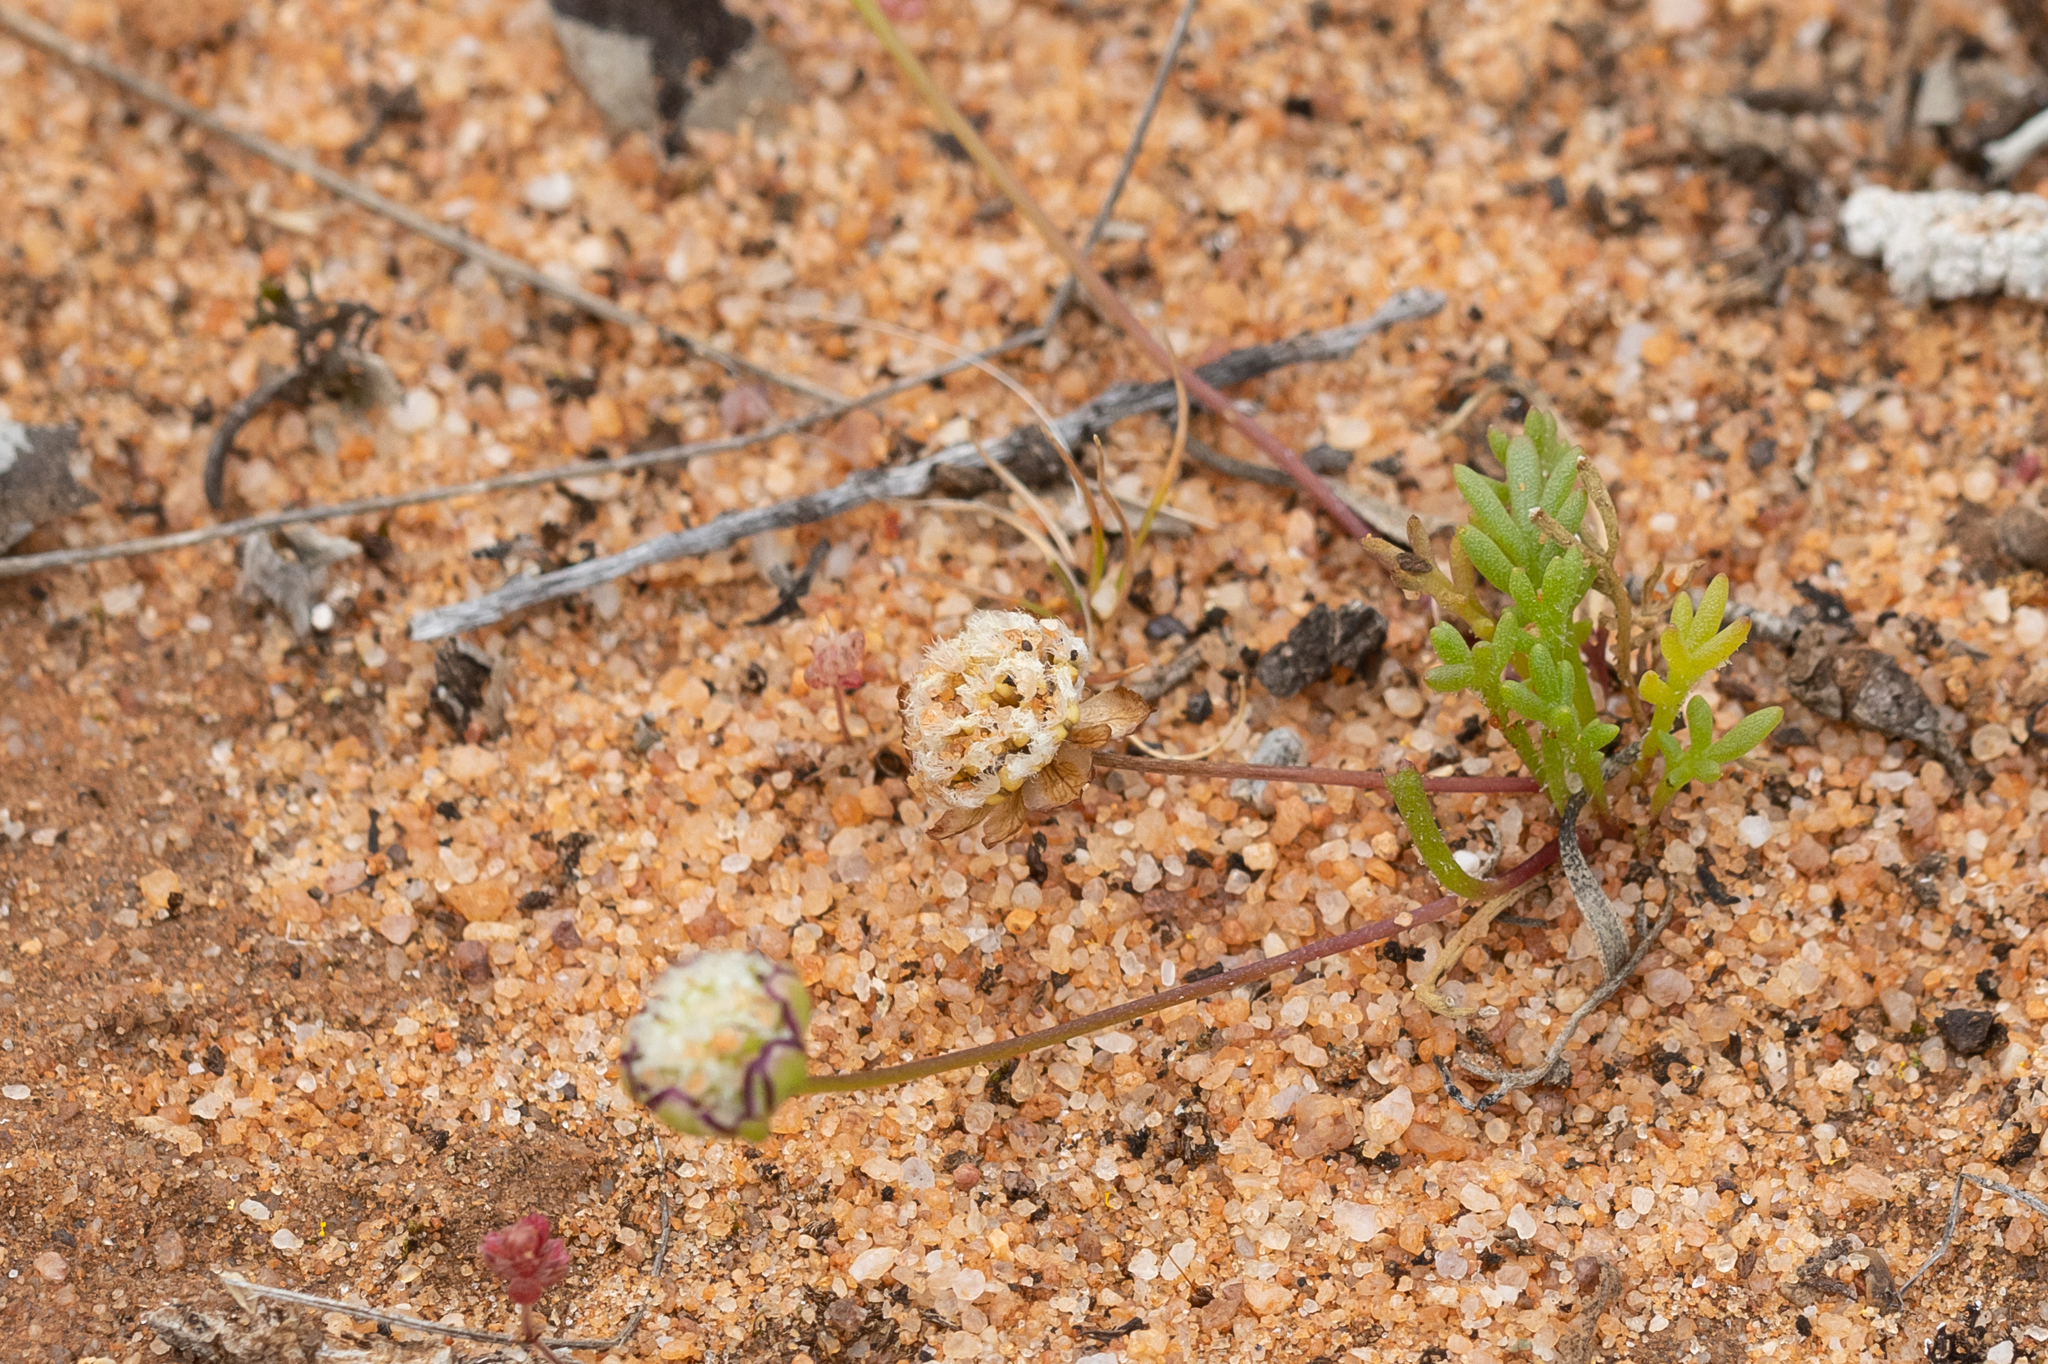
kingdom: Plantae
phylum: Tracheophyta
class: Magnoliopsida
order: Asterales
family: Asteraceae
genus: Brachyscome
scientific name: Brachyscome lineariloba
